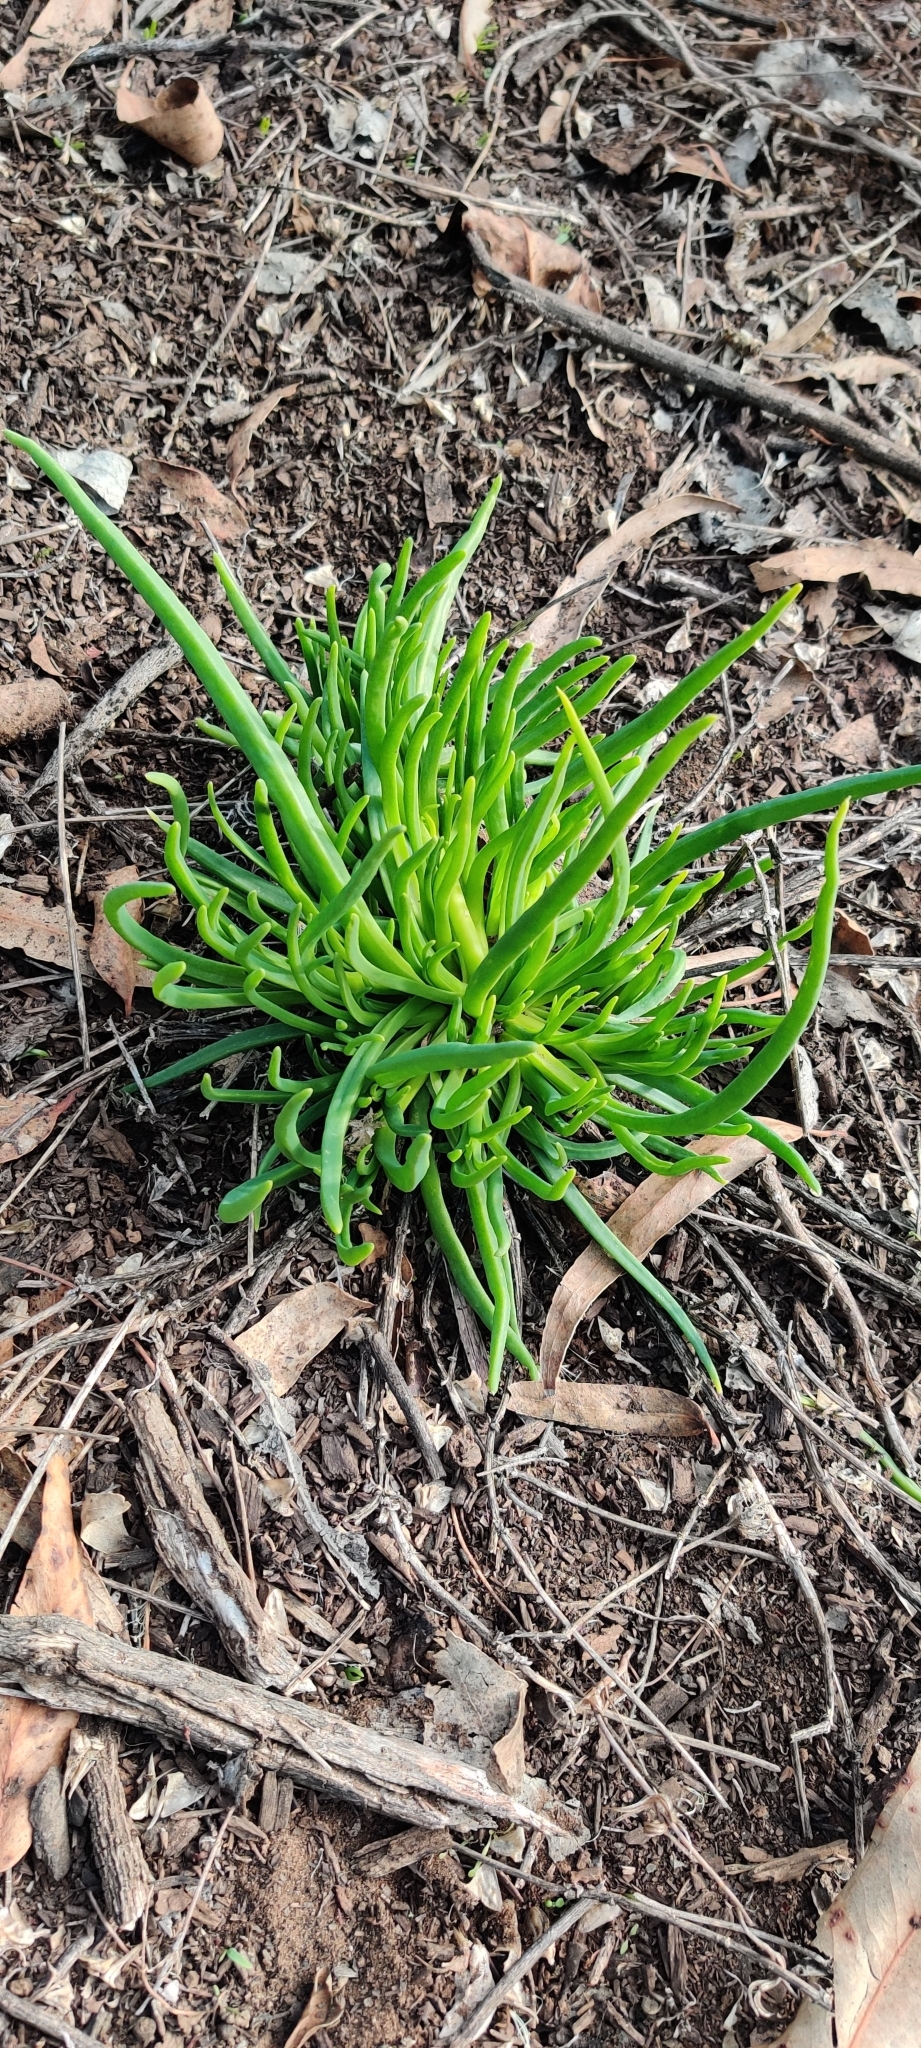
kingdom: Plantae
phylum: Tracheophyta
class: Magnoliopsida
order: Caryophyllales
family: Aizoaceae
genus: Conicosia
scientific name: Conicosia pugioniformis
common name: Narrow-leaved iceplant
